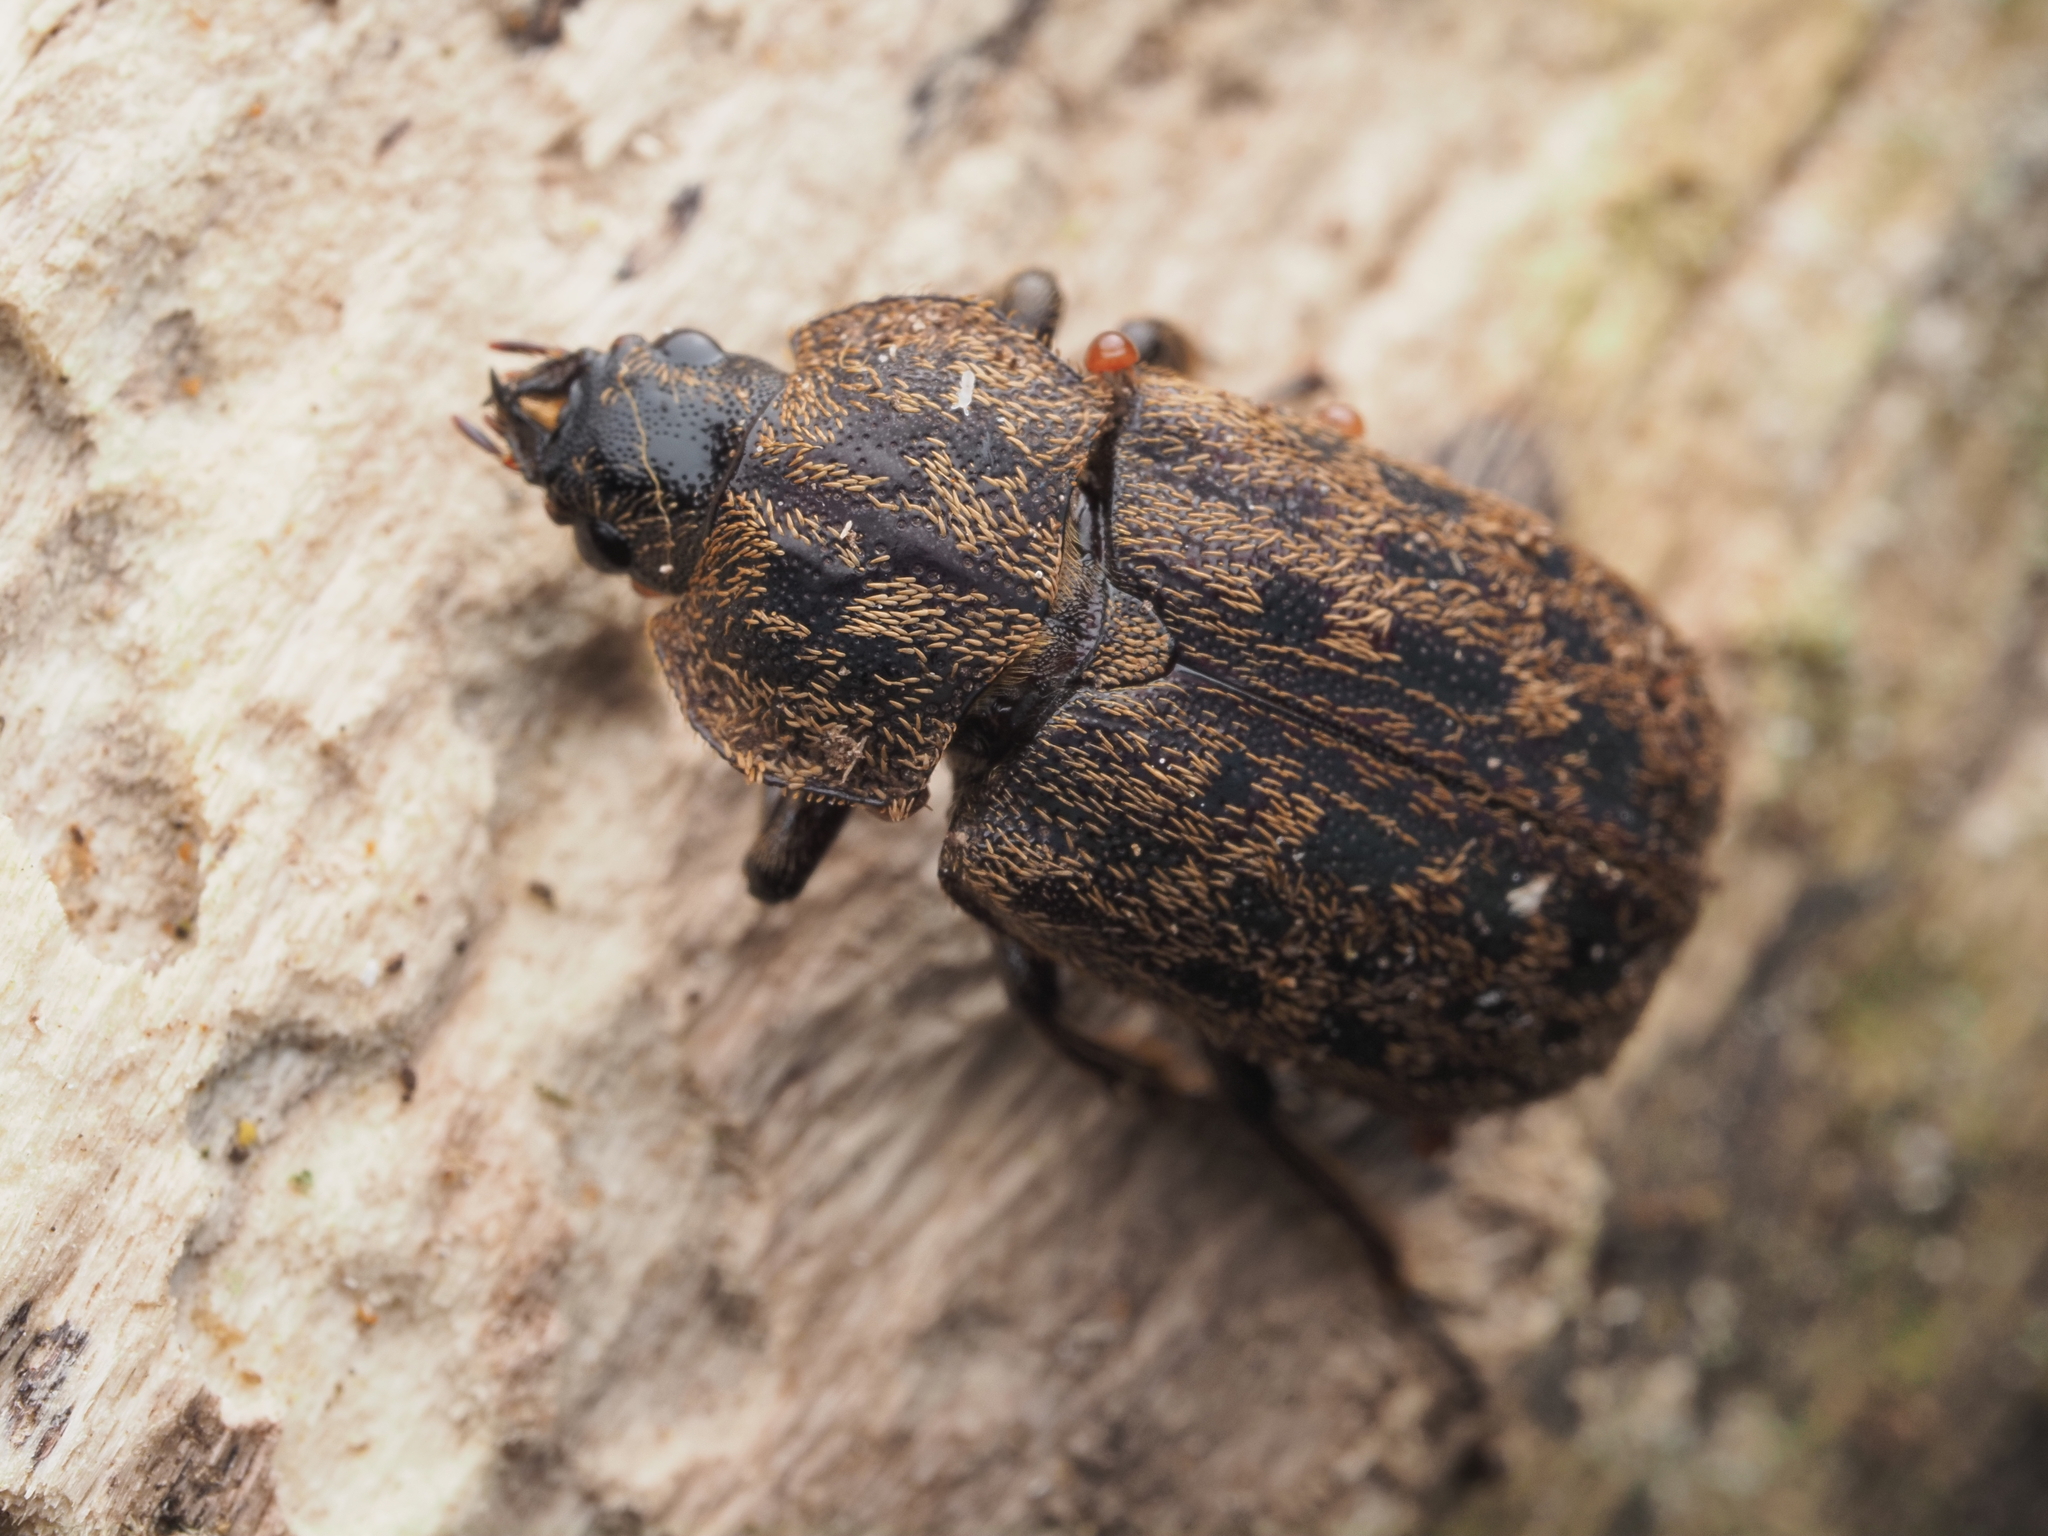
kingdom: Animalia
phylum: Arthropoda
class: Insecta
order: Coleoptera
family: Lucanidae
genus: Mitophyllus
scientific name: Mitophyllus parrianus
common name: Parry's stag beetle
